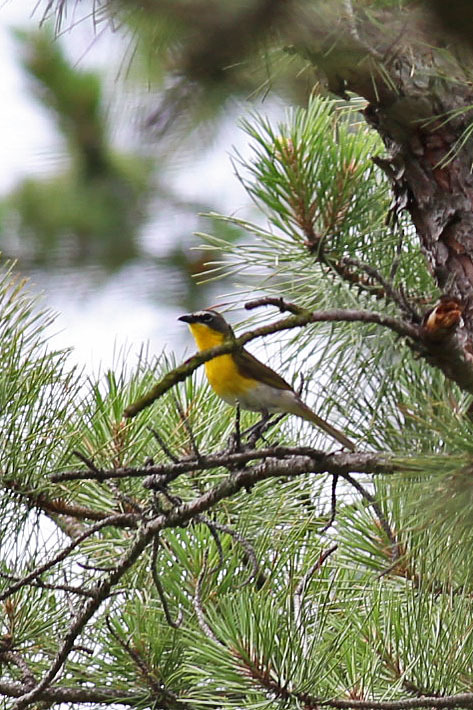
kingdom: Animalia
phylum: Chordata
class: Aves
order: Passeriformes
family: Parulidae
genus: Icteria
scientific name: Icteria virens
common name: Yellow-breasted chat
